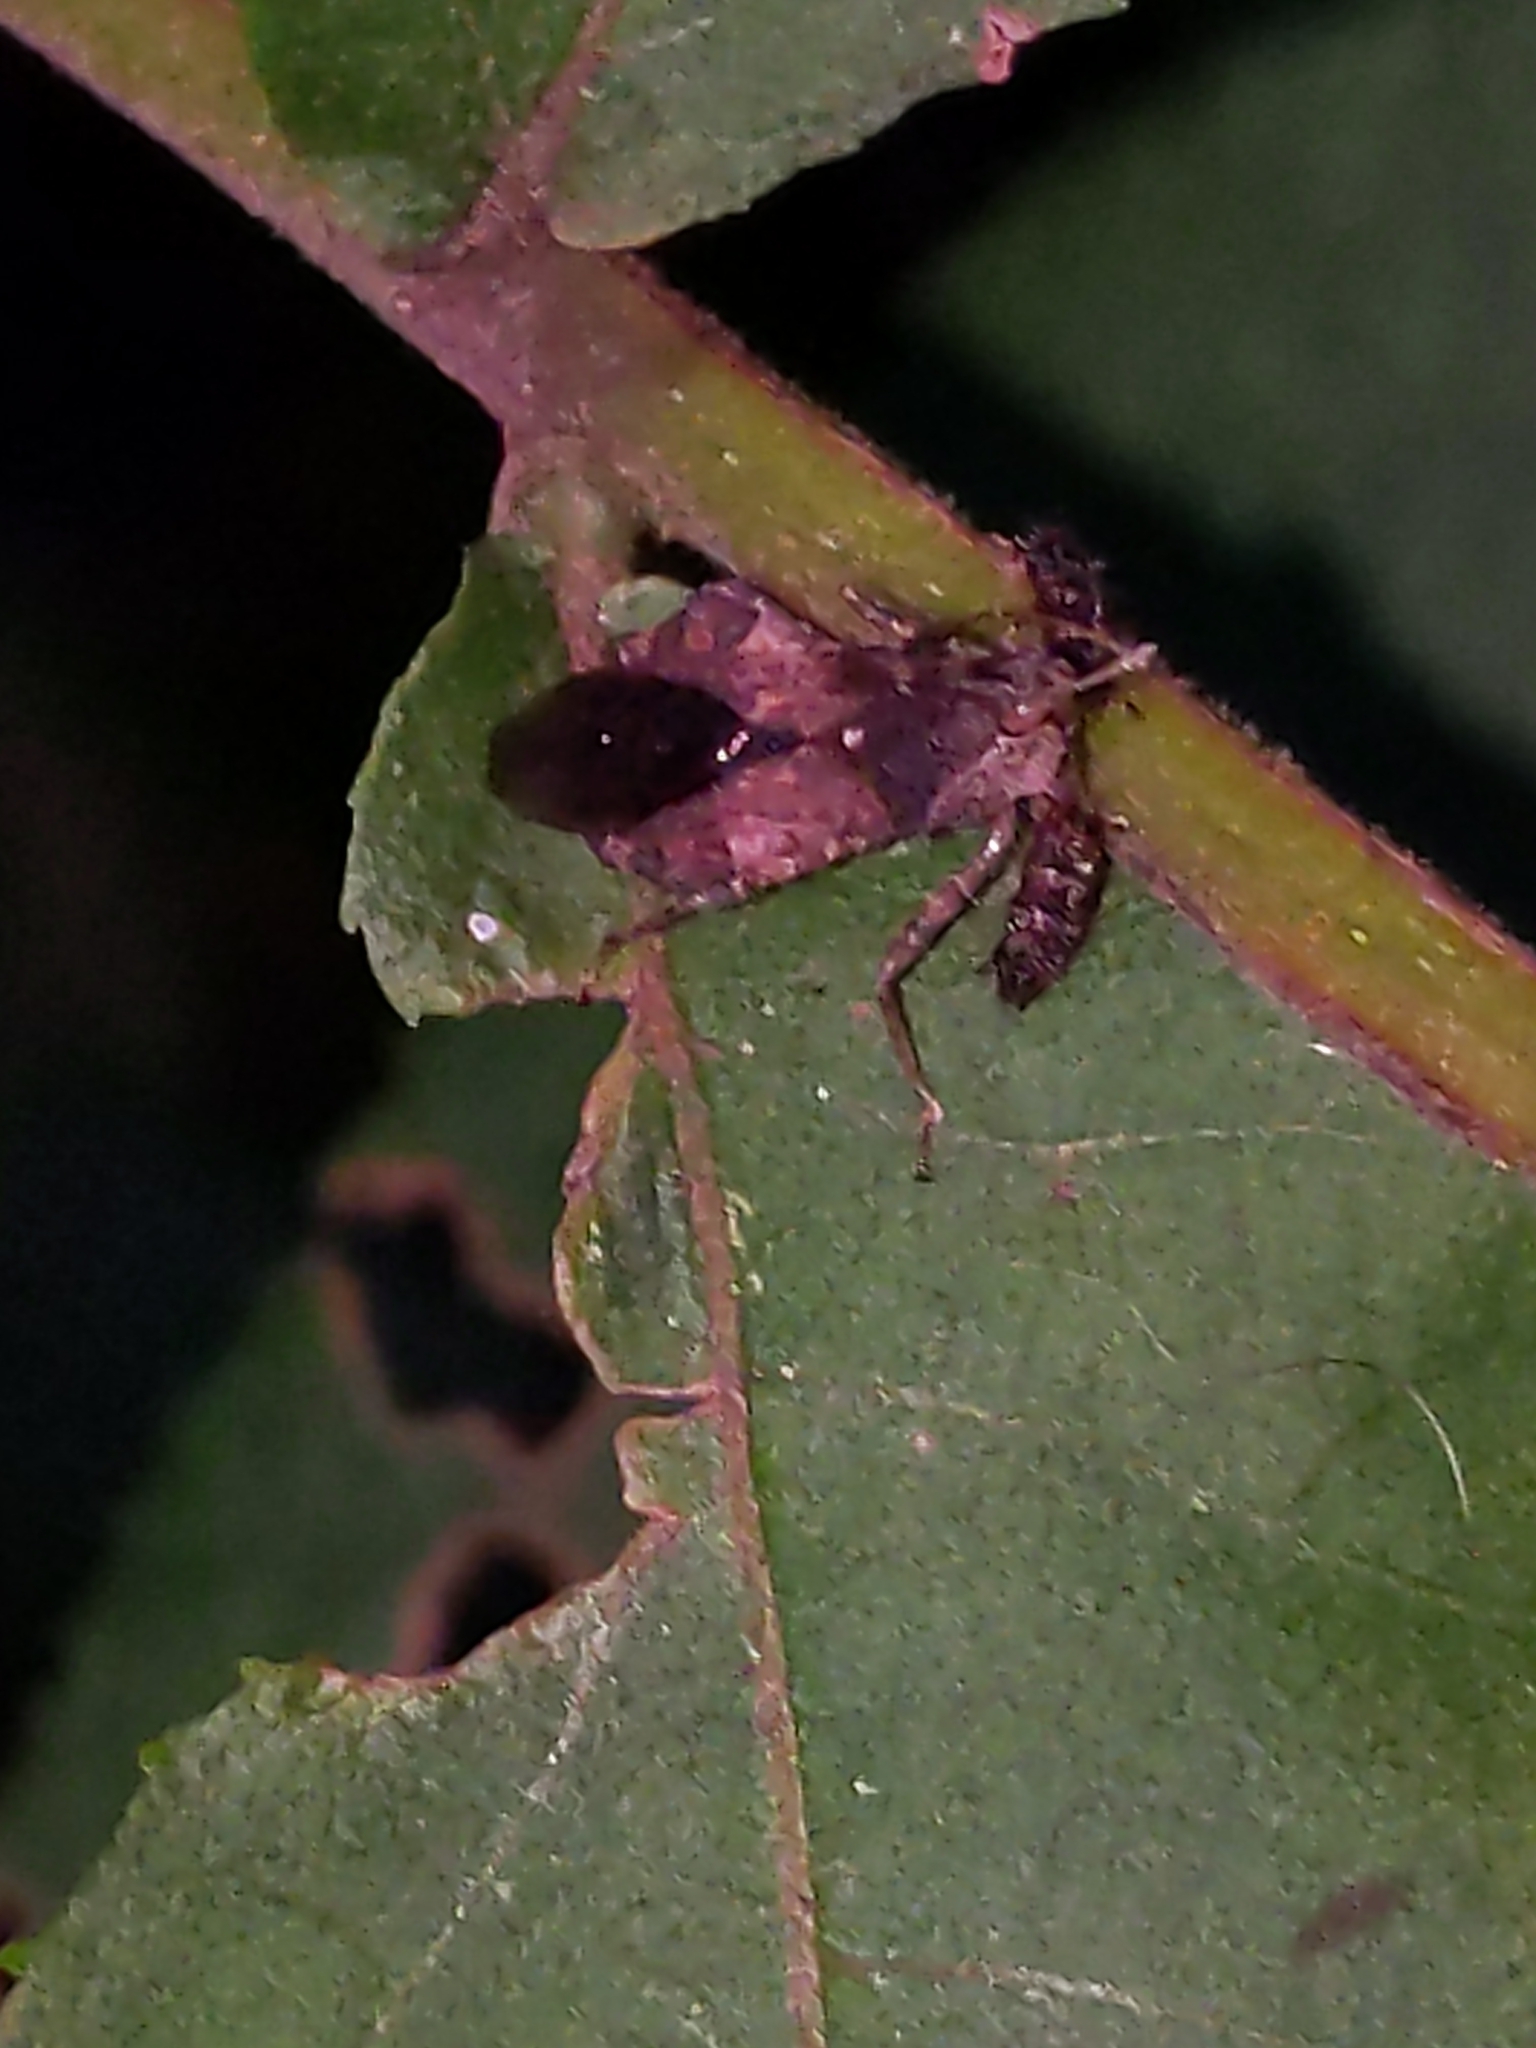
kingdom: Animalia
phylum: Arthropoda
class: Insecta
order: Hemiptera
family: Reduviidae
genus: Sinea
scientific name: Sinea diadema
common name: Spined assassin bug
